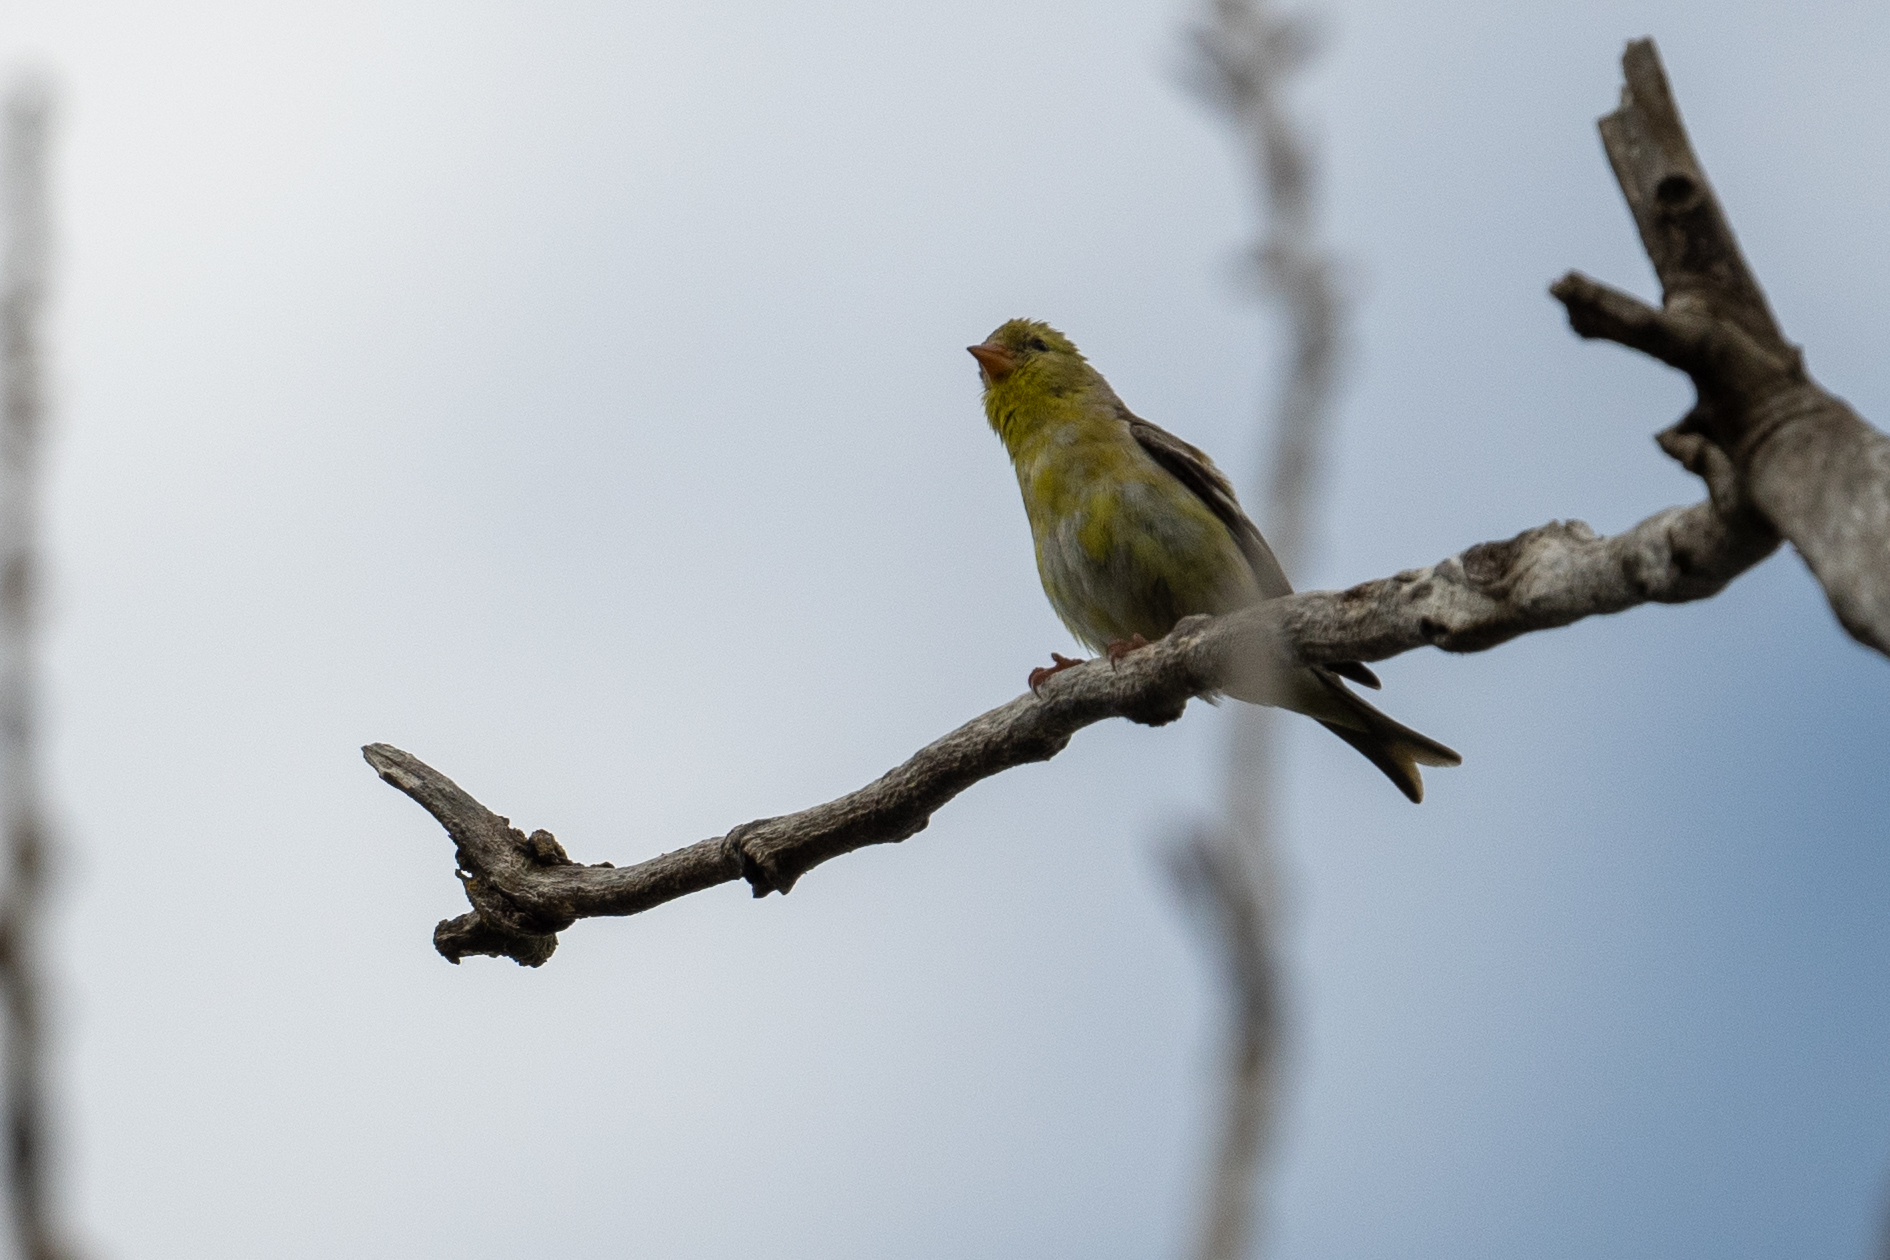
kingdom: Animalia
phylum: Chordata
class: Aves
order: Passeriformes
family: Fringillidae
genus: Spinus
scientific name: Spinus tristis
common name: American goldfinch
